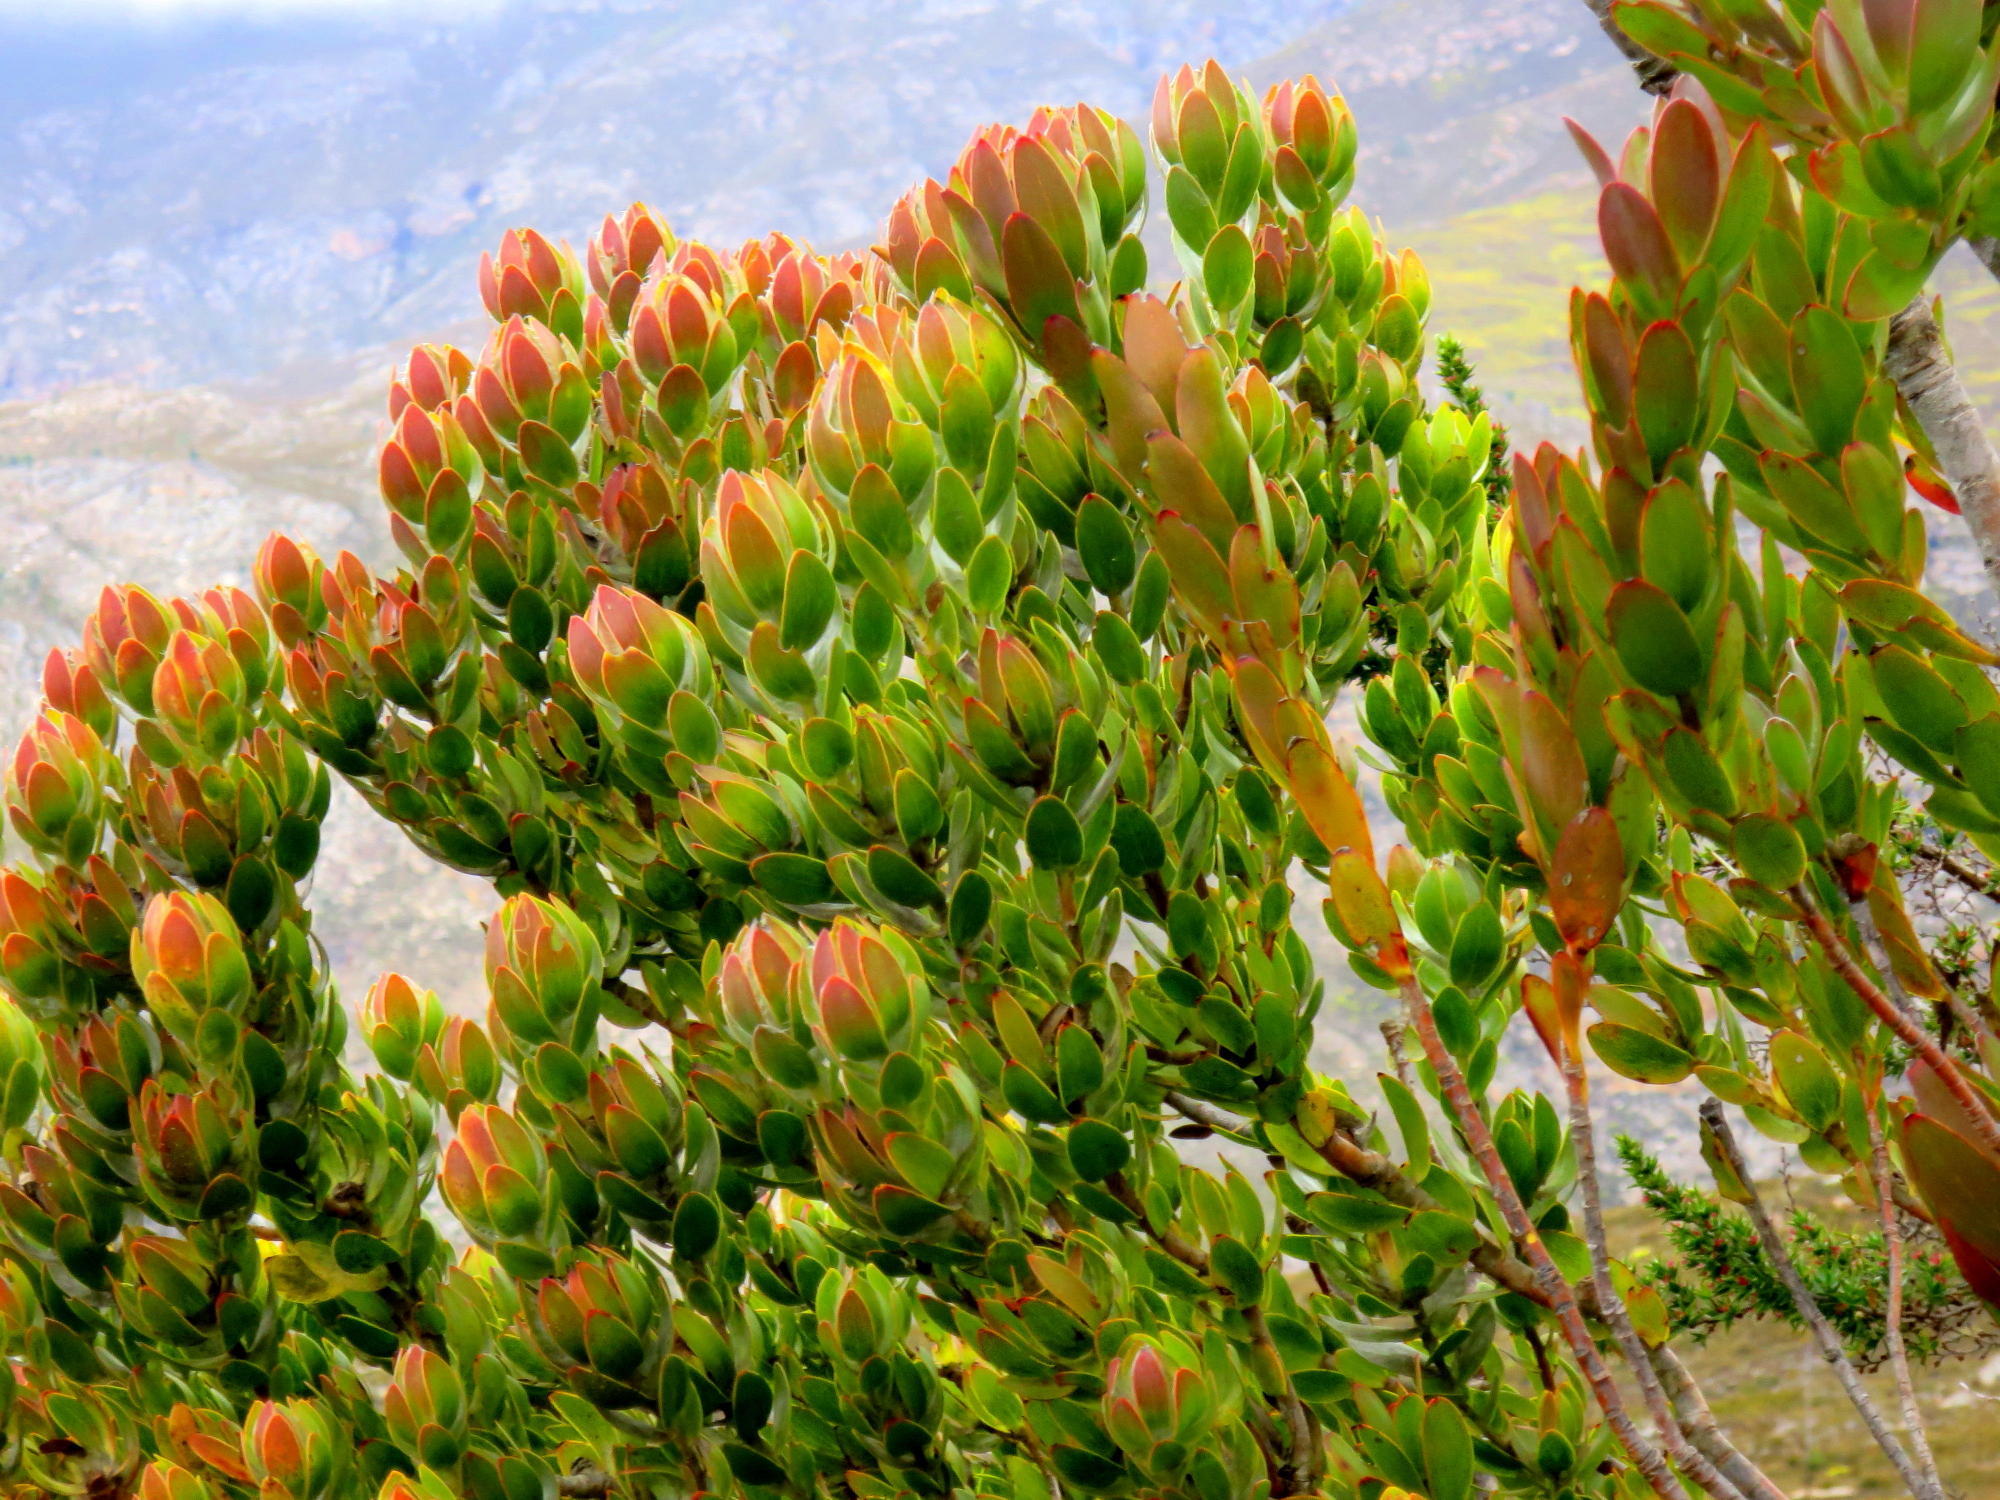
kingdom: Plantae
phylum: Tracheophyta
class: Magnoliopsida
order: Proteales
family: Proteaceae
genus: Leucadendron
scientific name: Leucadendron nervosum
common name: Silky-ruff conebush
